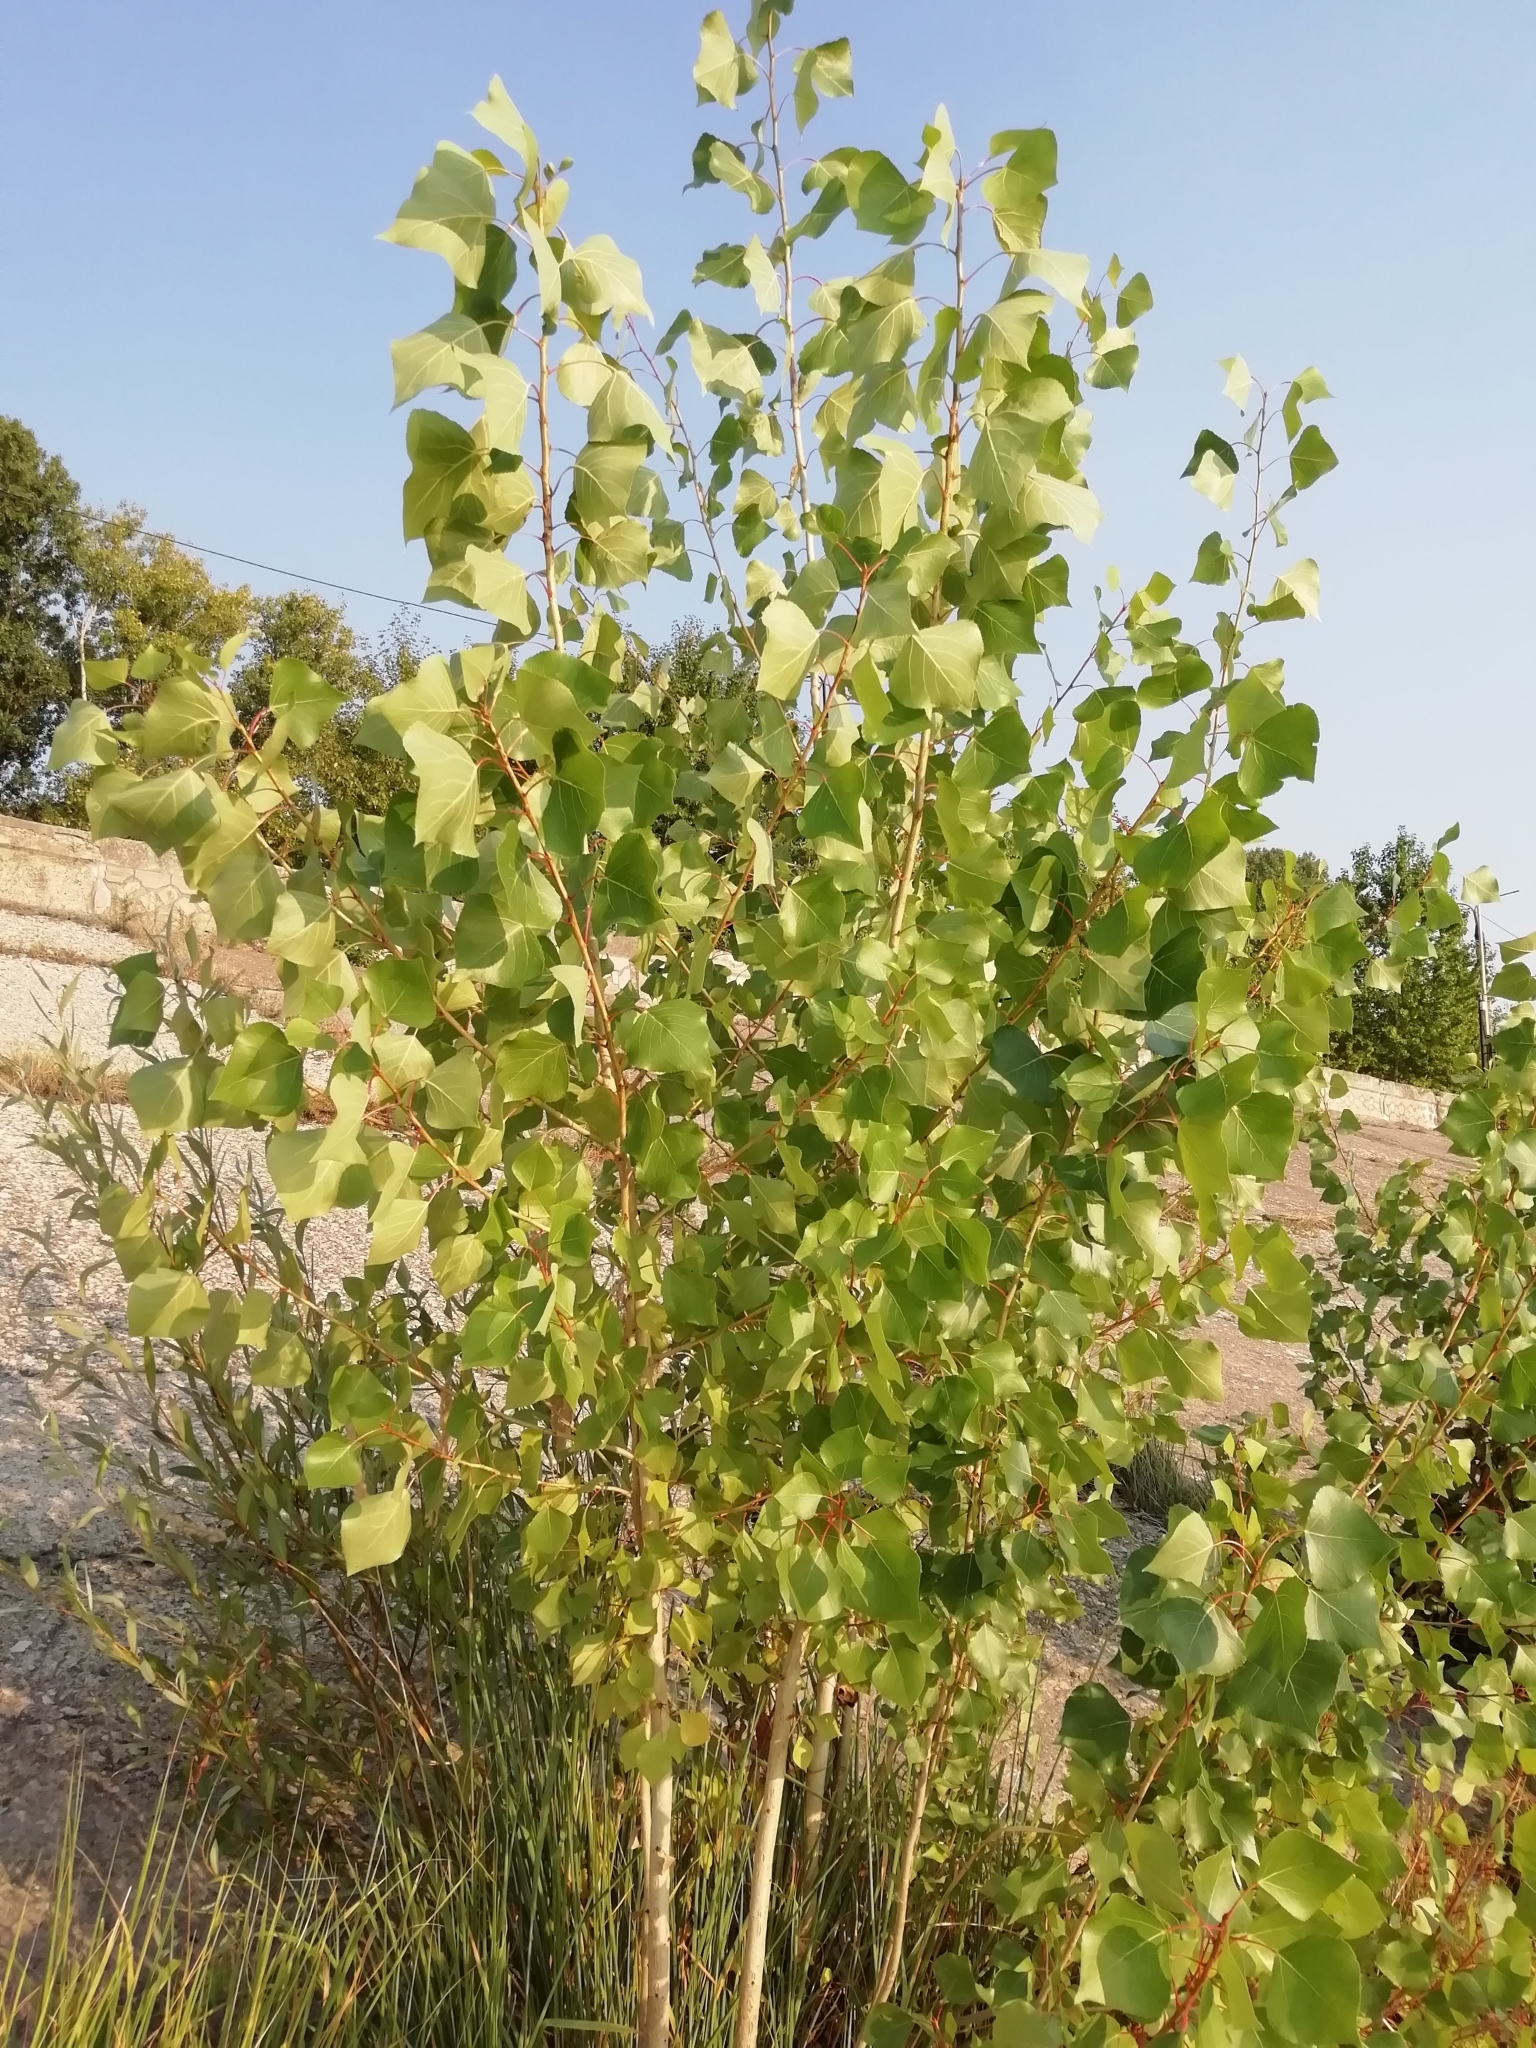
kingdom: Plantae
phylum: Tracheophyta
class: Magnoliopsida
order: Malpighiales
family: Salicaceae
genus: Populus
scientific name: Populus nigra
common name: Black poplar
